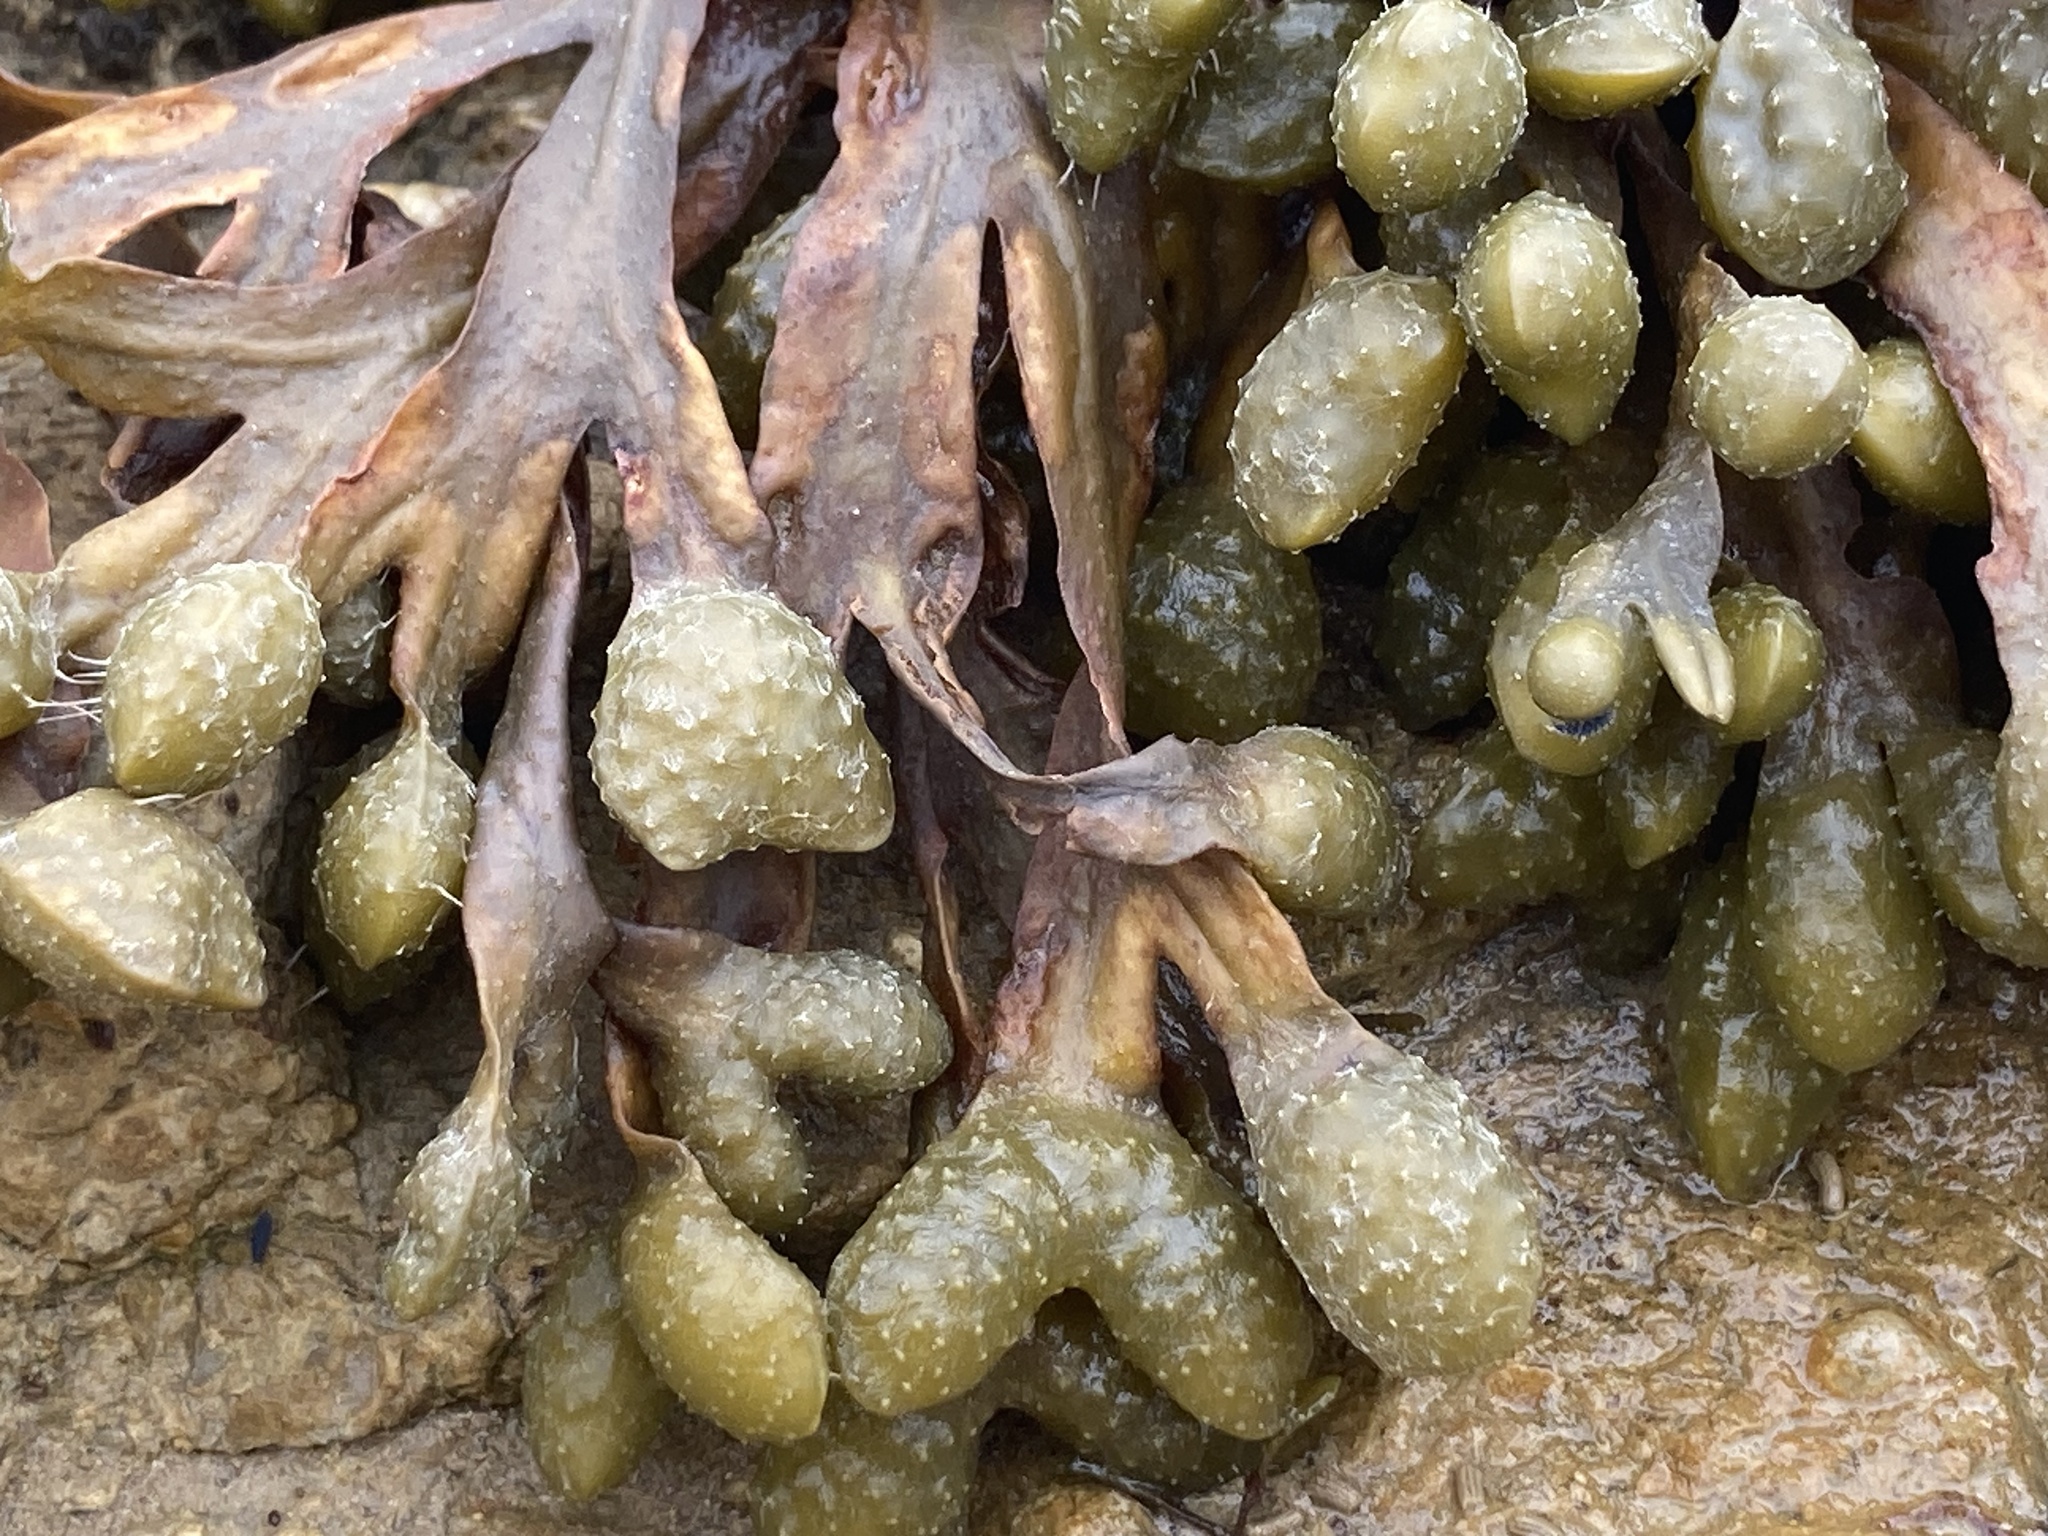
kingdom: Chromista
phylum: Ochrophyta
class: Phaeophyceae
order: Fucales
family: Fucaceae
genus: Fucus
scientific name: Fucus spiralis
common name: Spiral wrack
